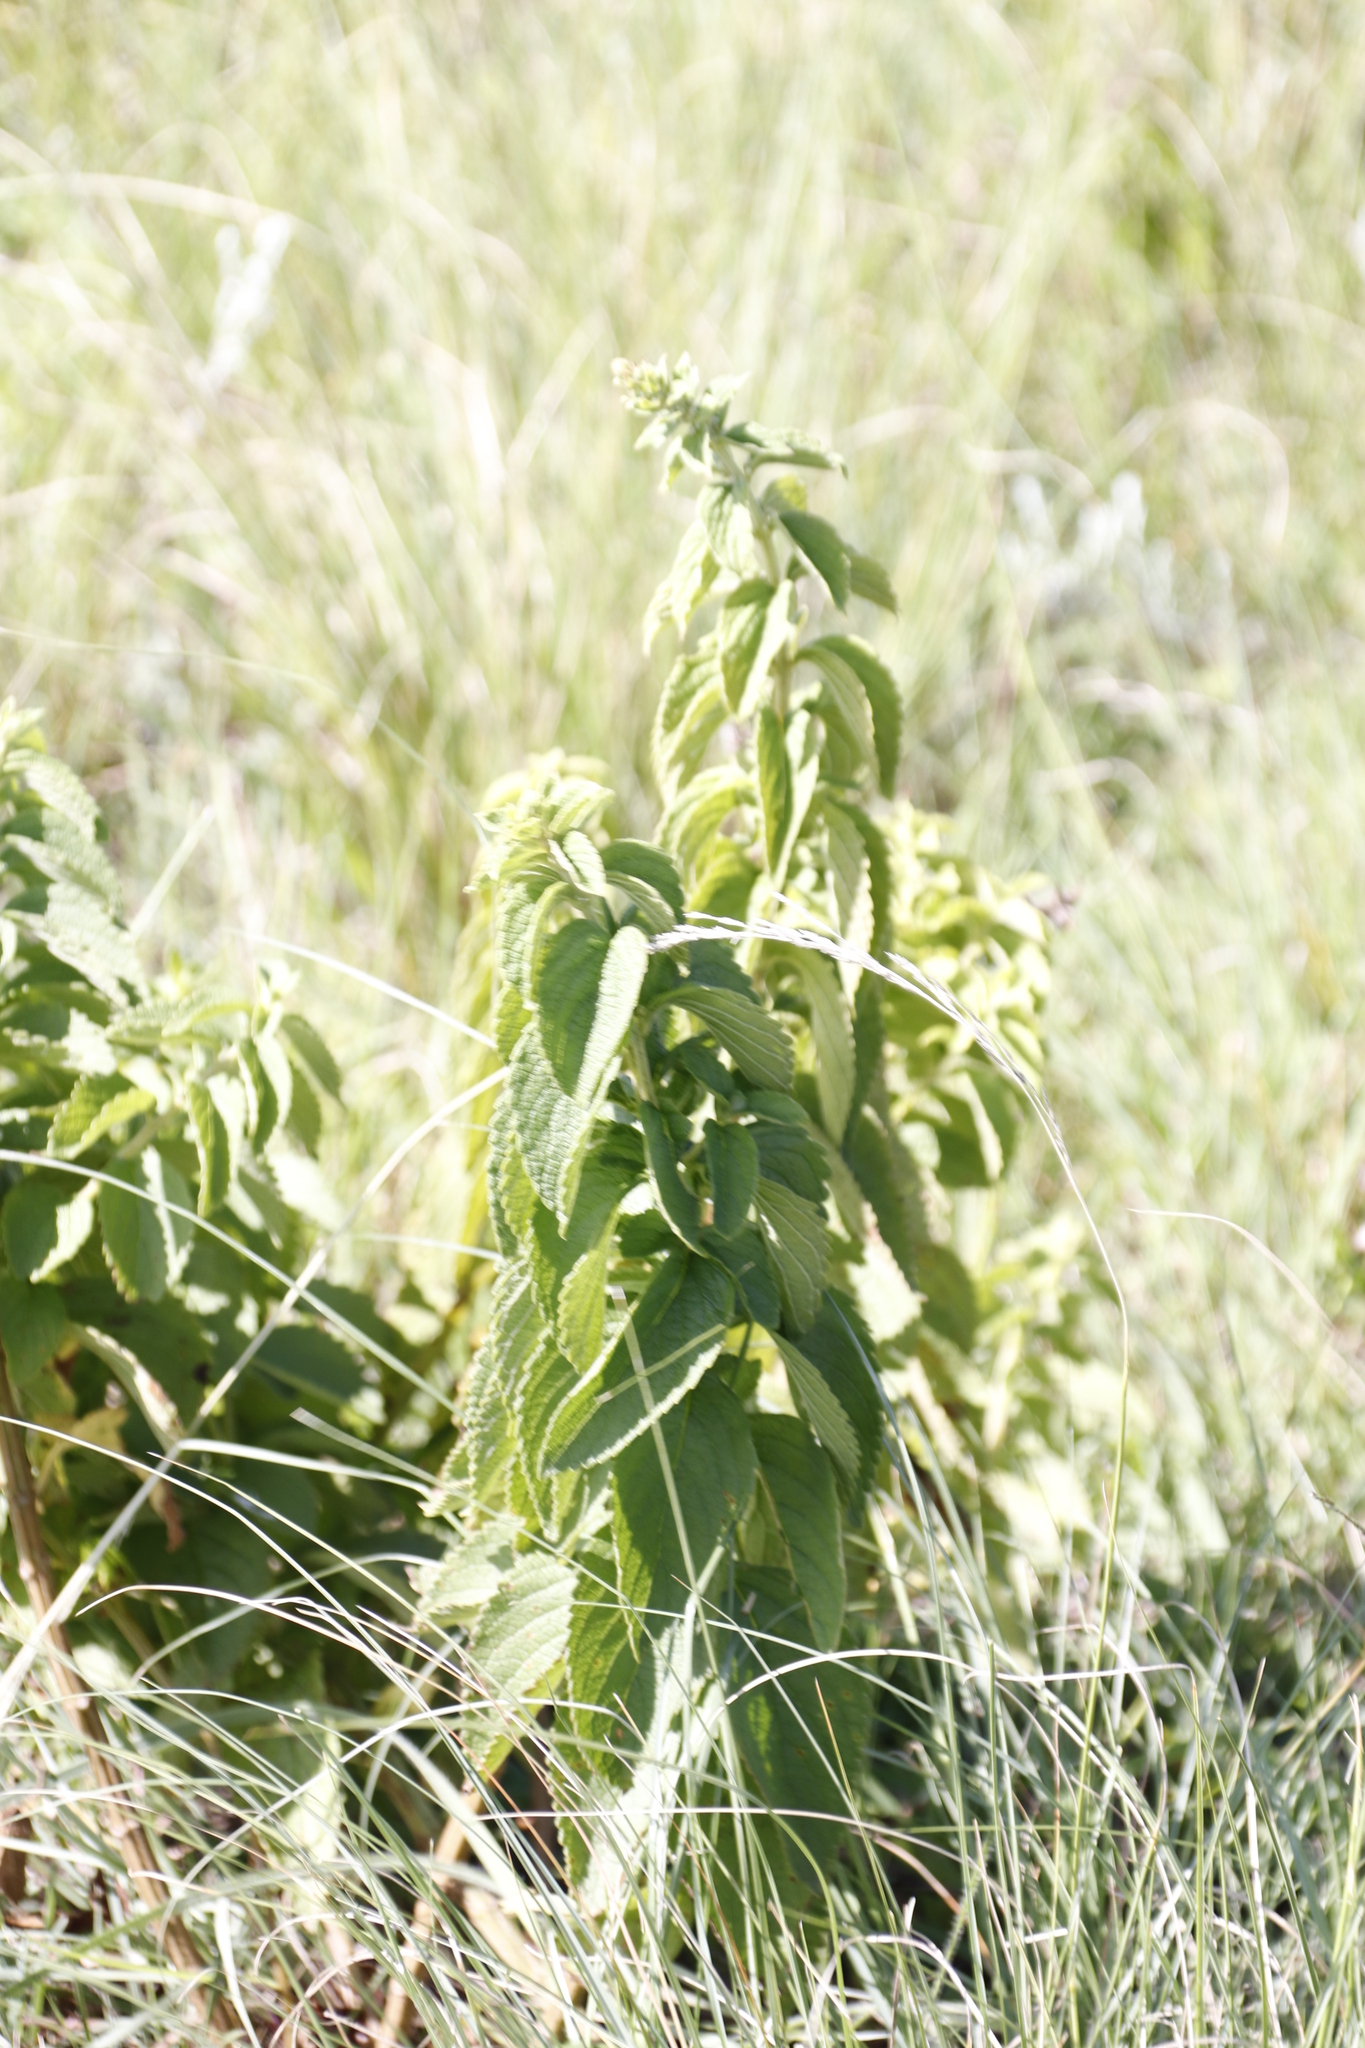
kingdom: Plantae
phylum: Tracheophyta
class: Magnoliopsida
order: Lamiales
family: Lamiaceae
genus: Coleus
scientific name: Coleus calycinus
